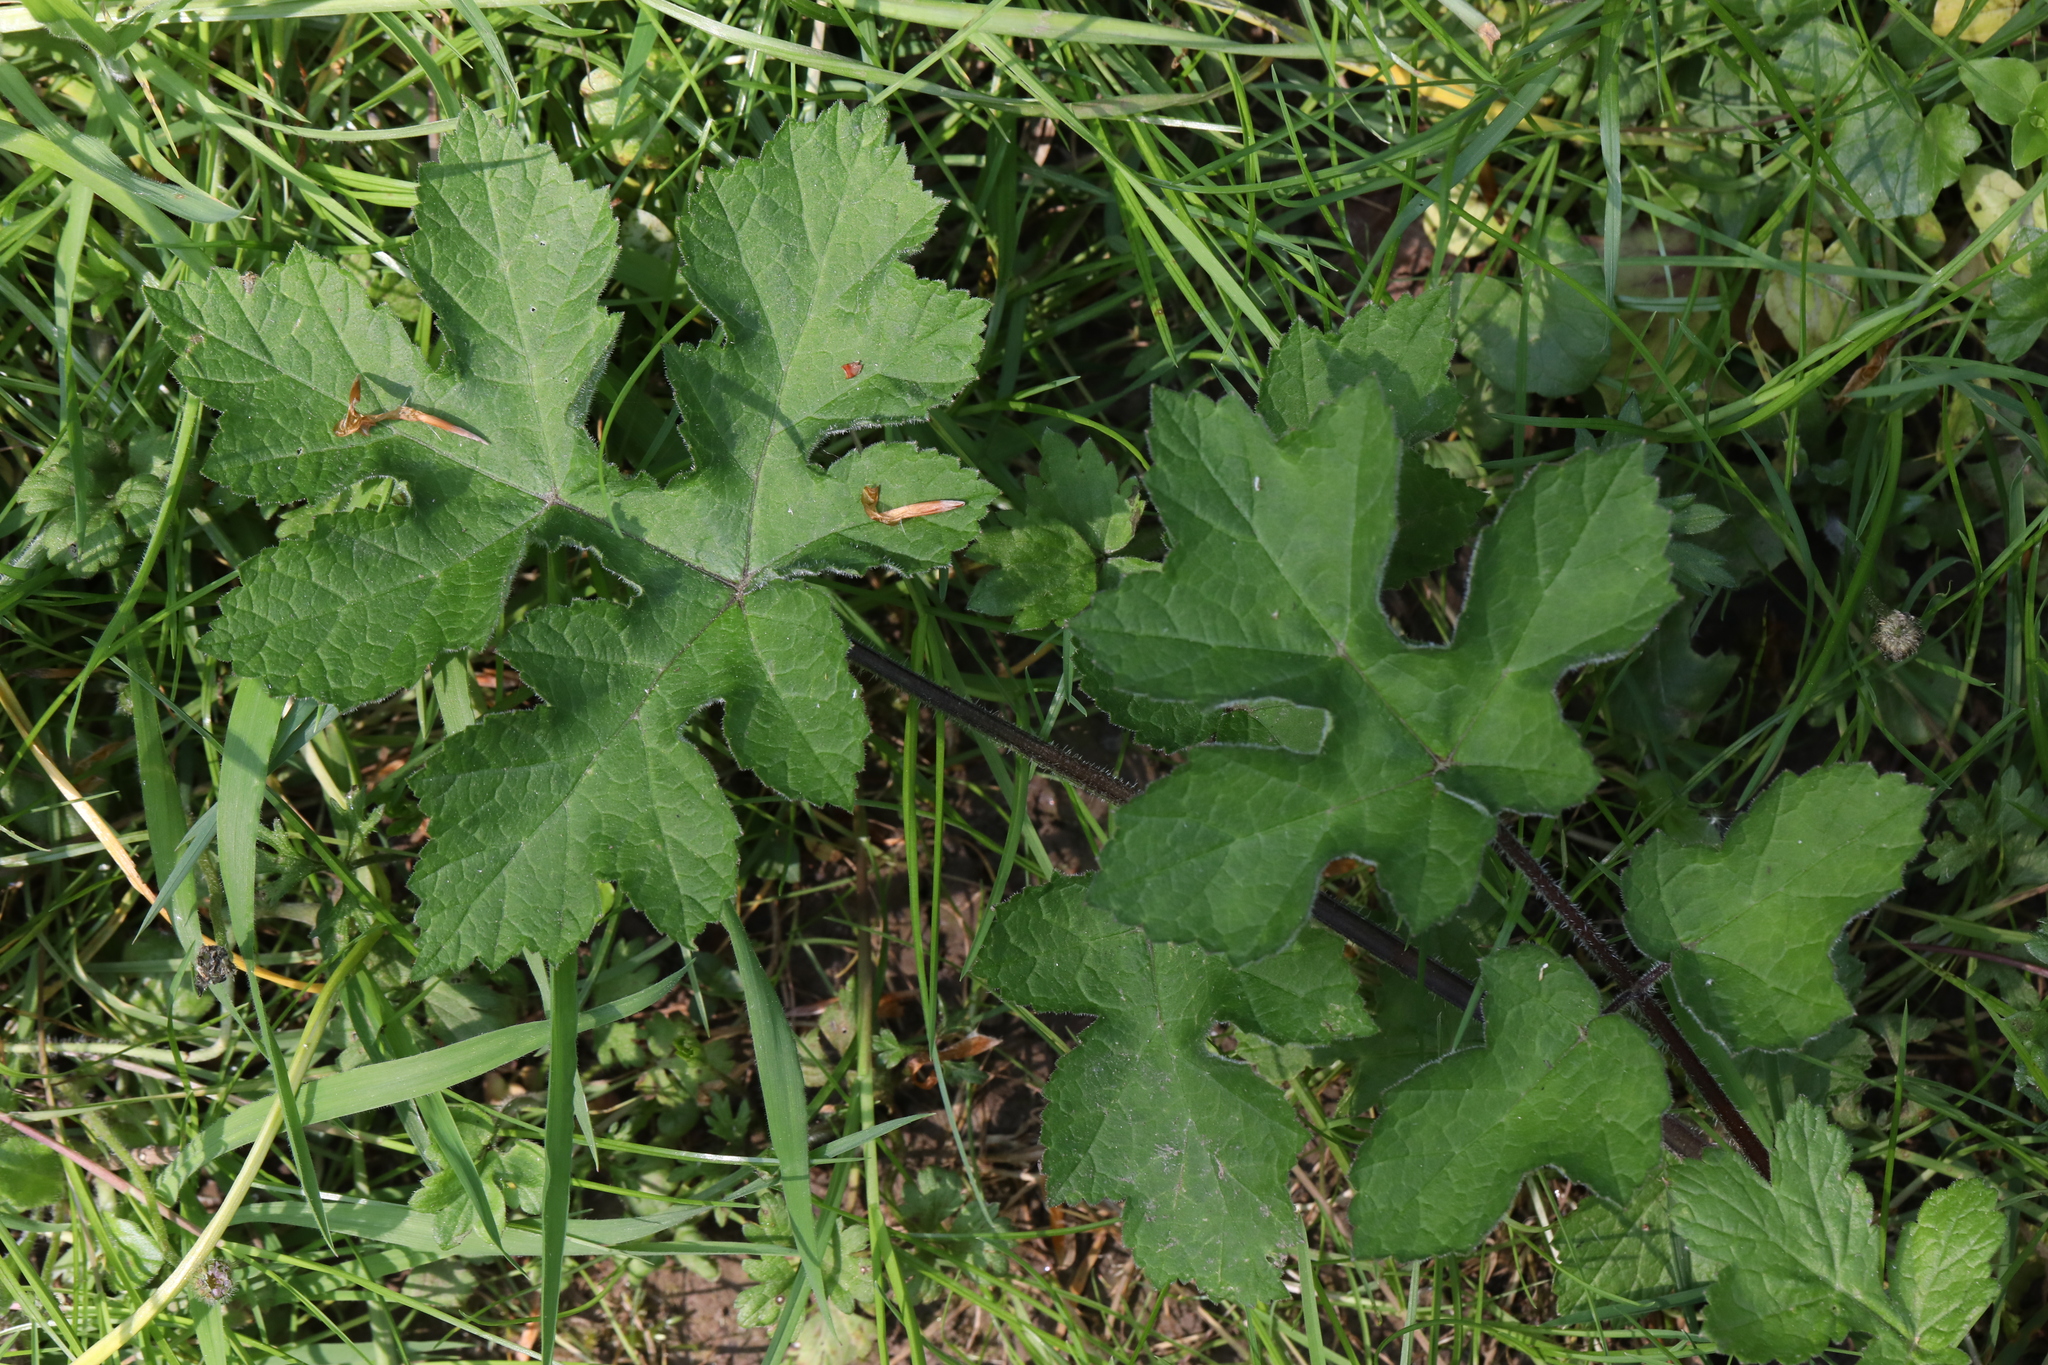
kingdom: Plantae
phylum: Tracheophyta
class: Magnoliopsida
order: Apiales
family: Apiaceae
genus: Heracleum
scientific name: Heracleum sphondylium
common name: Hogweed
